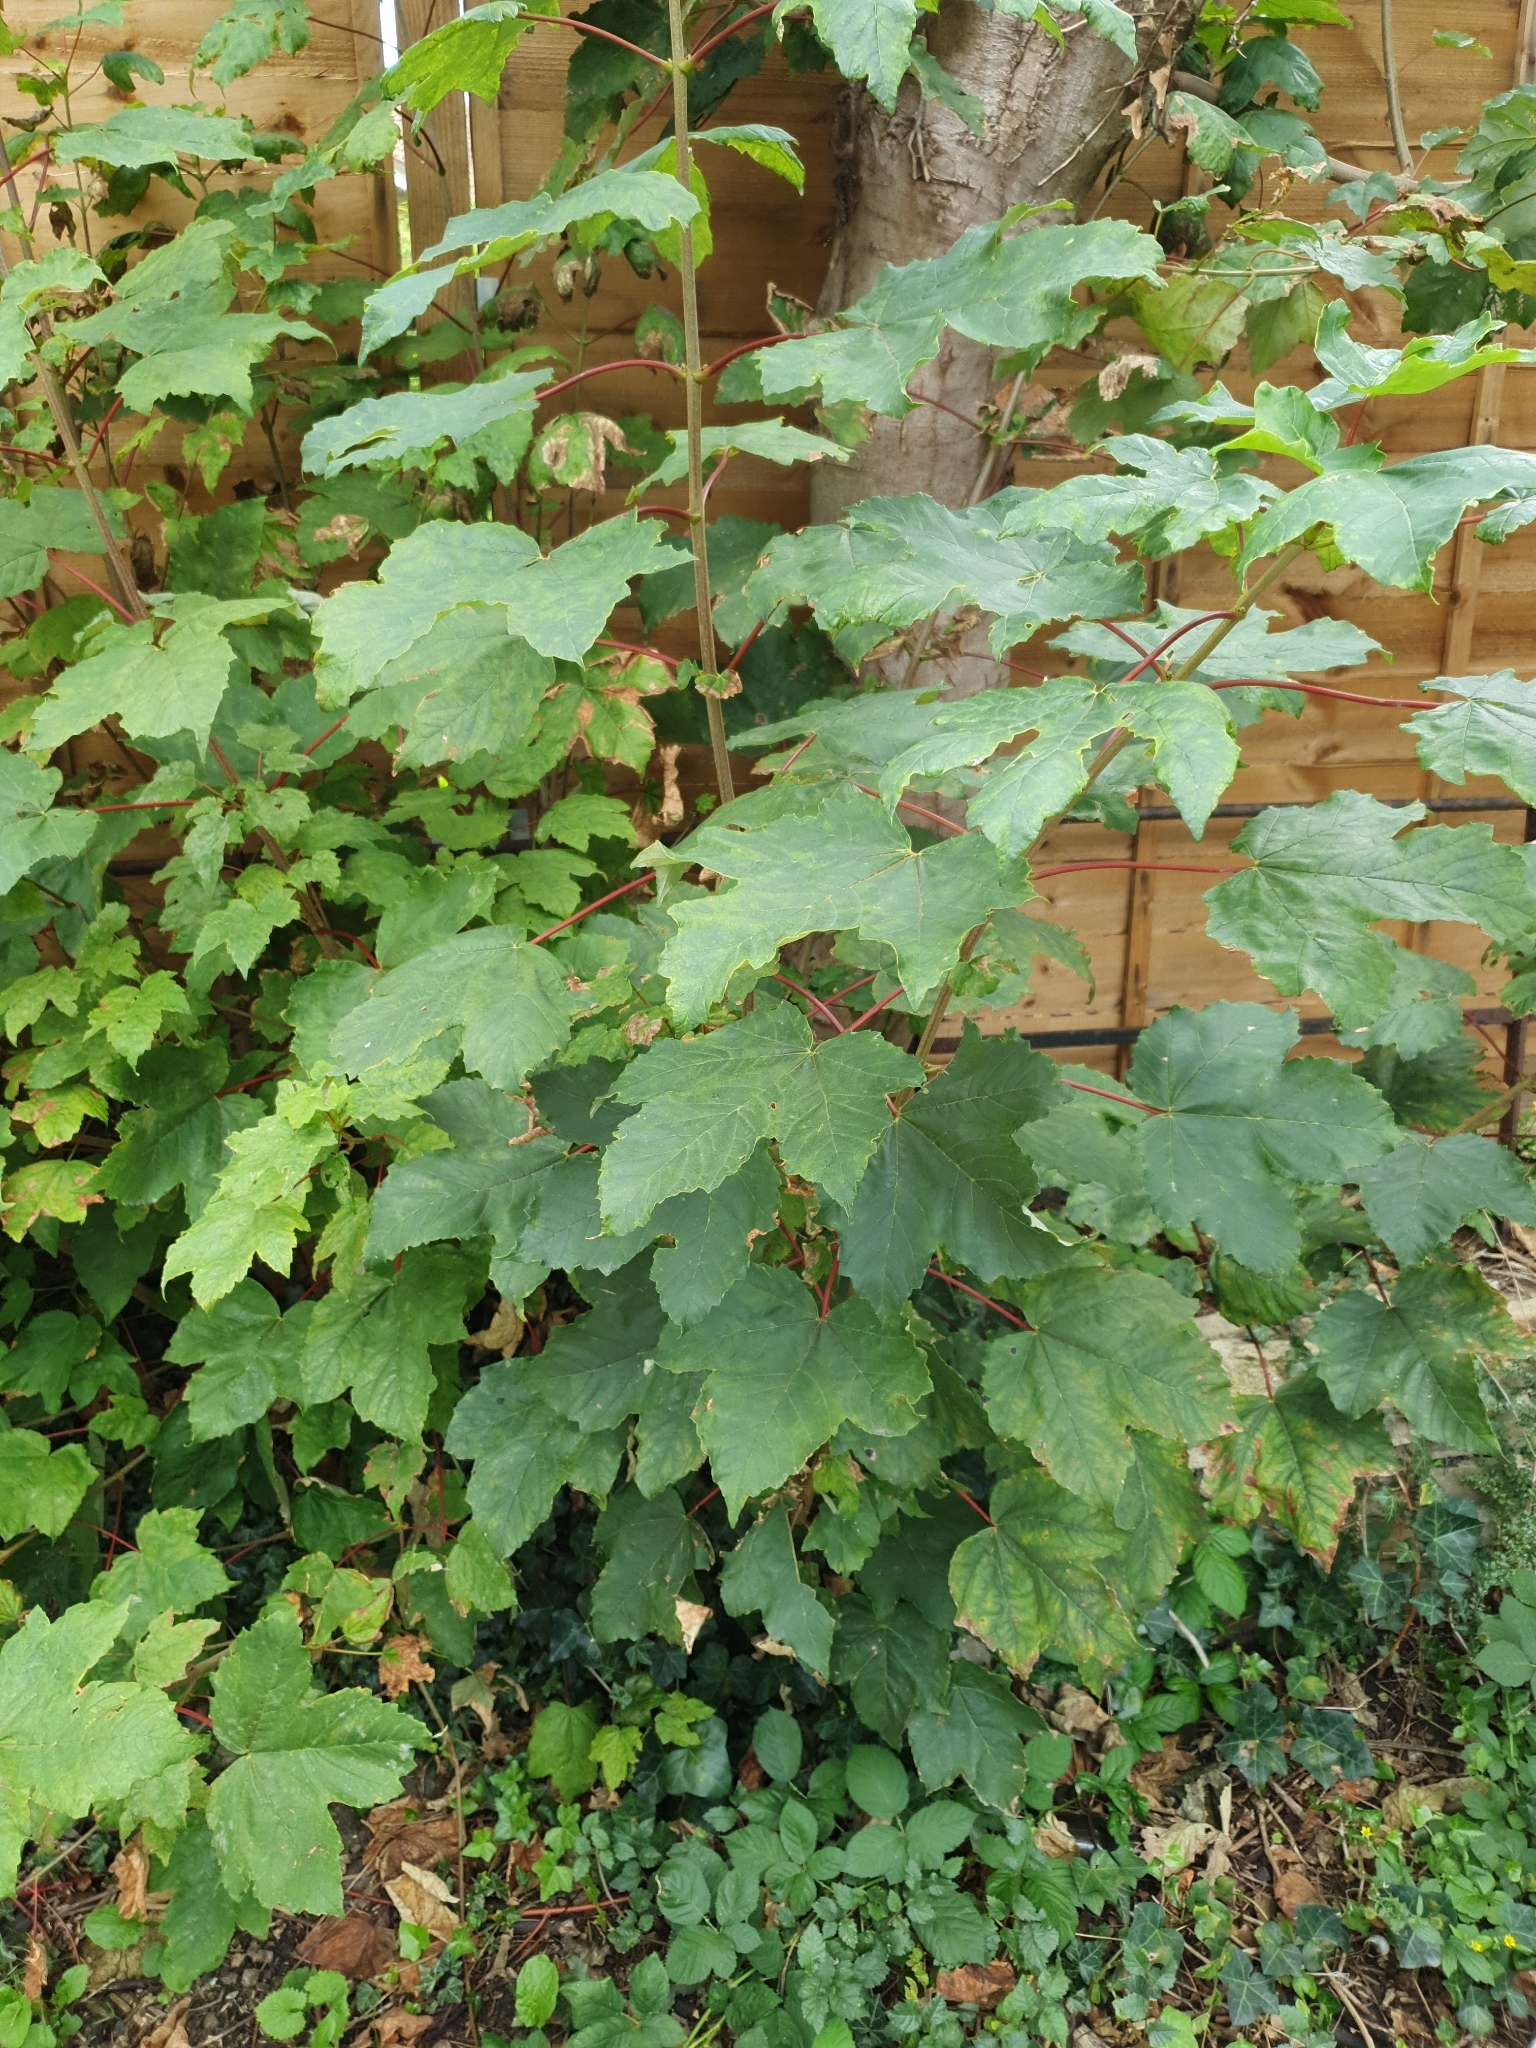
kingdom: Plantae
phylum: Tracheophyta
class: Magnoliopsida
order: Sapindales
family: Sapindaceae
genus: Acer
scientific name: Acer pseudoplatanus
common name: Sycamore
